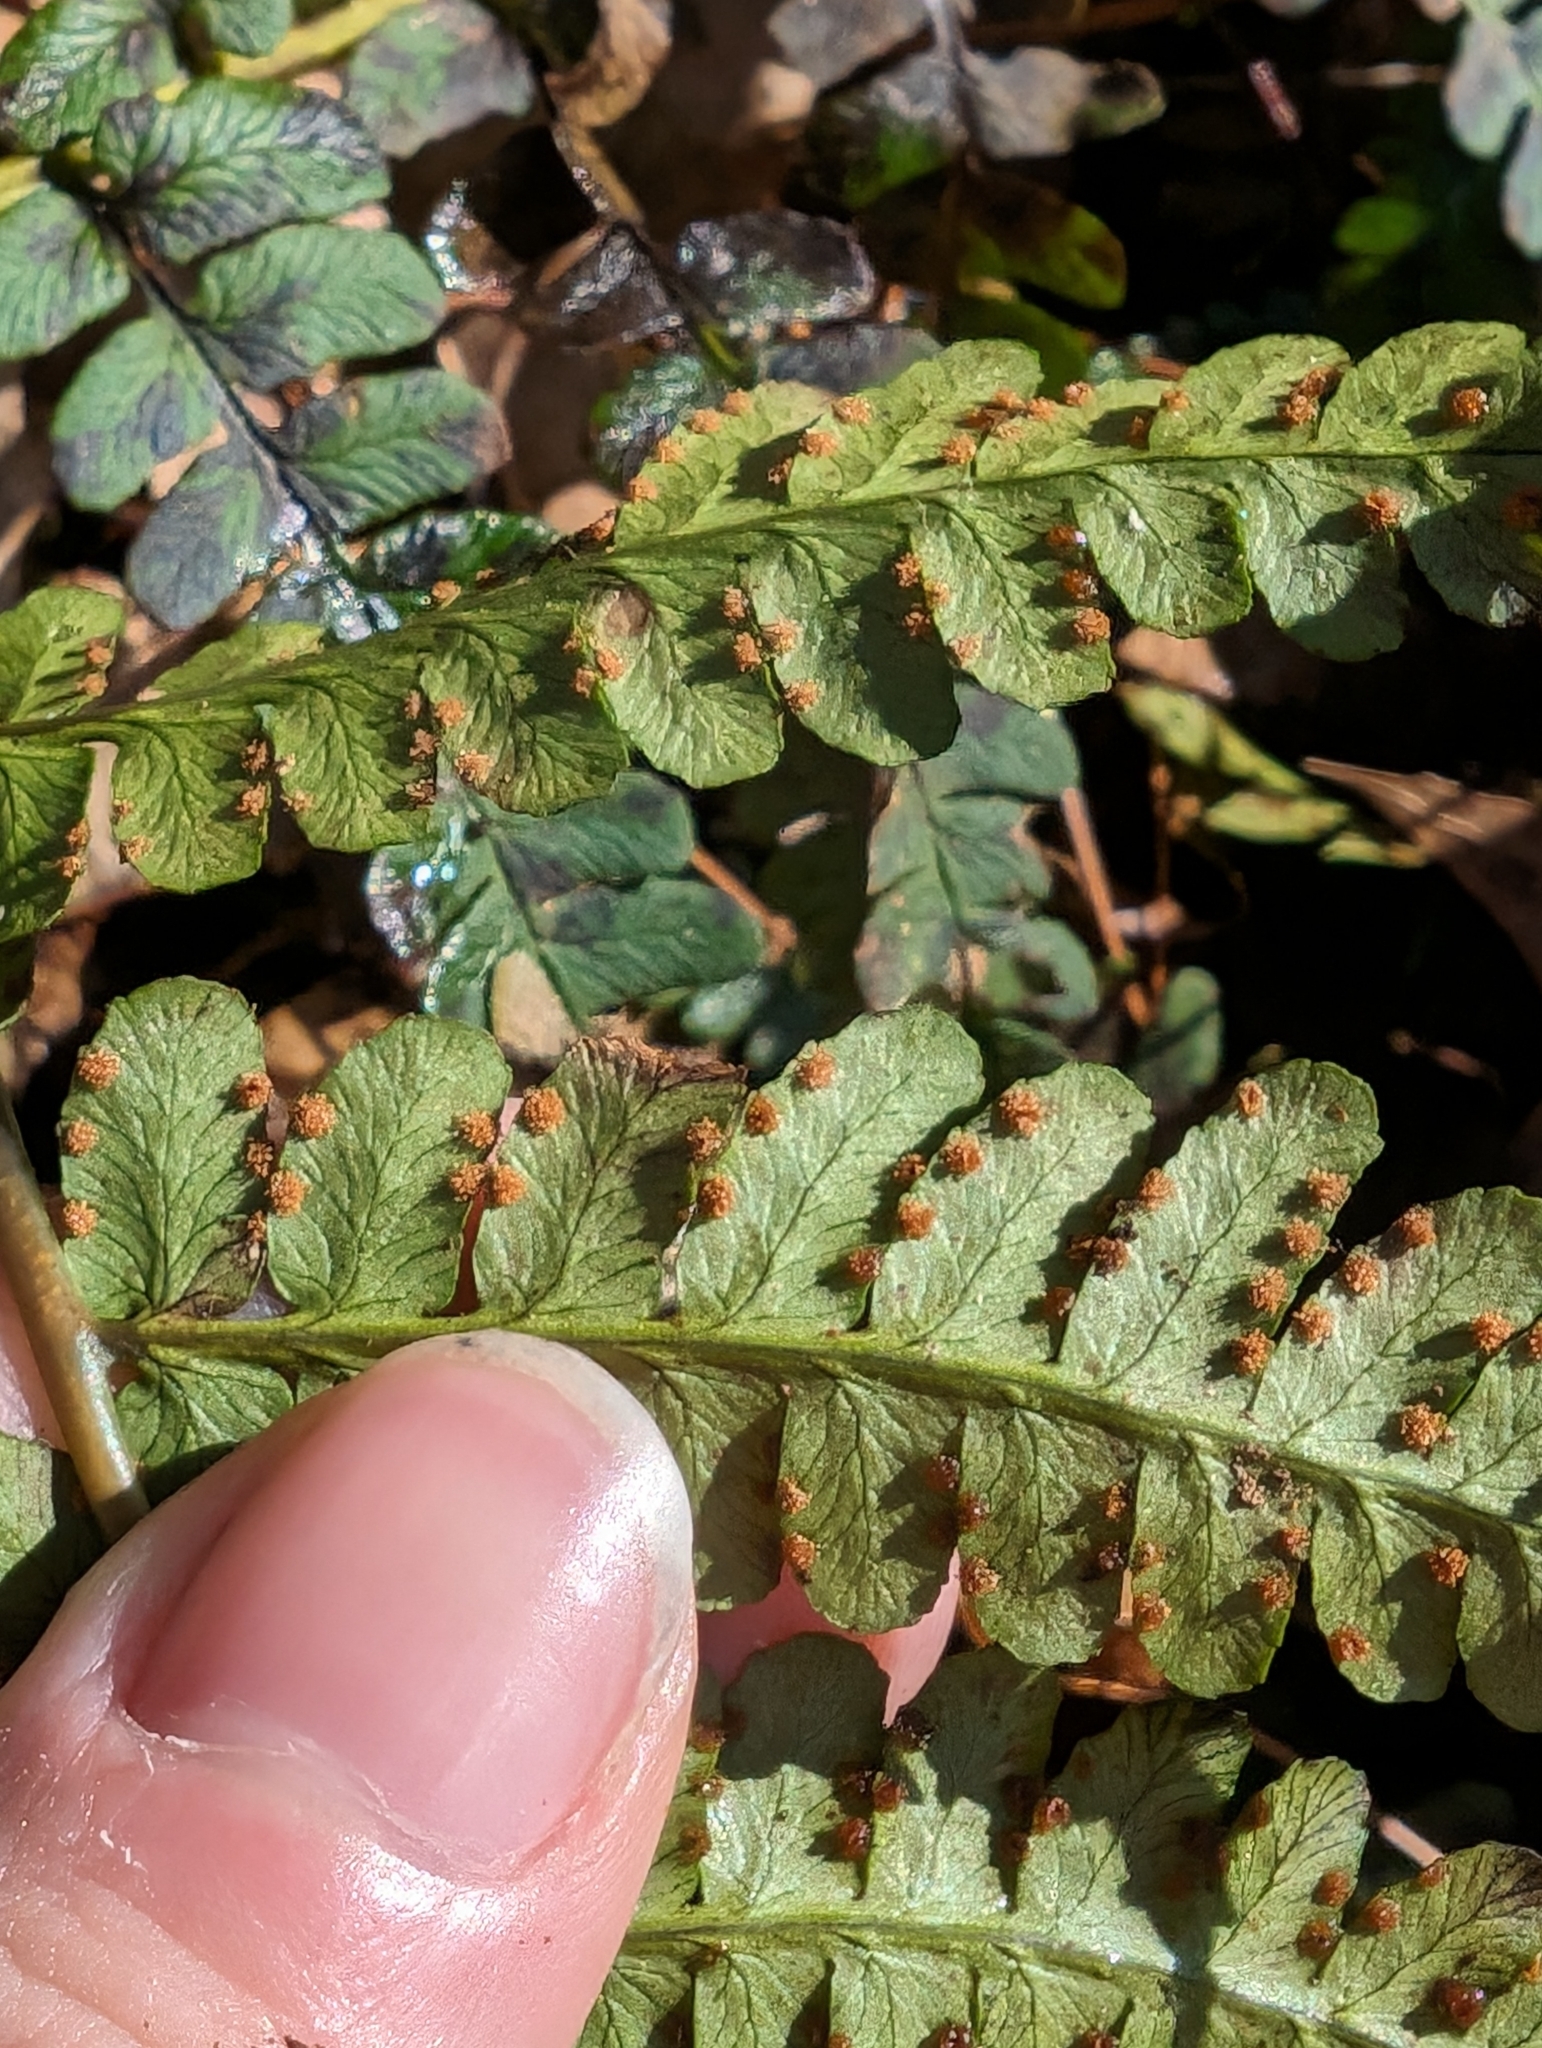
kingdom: Plantae
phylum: Tracheophyta
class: Polypodiopsida
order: Polypodiales
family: Dryopteridaceae
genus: Dryopteris
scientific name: Dryopteris marginalis
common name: Marginal wood fern
